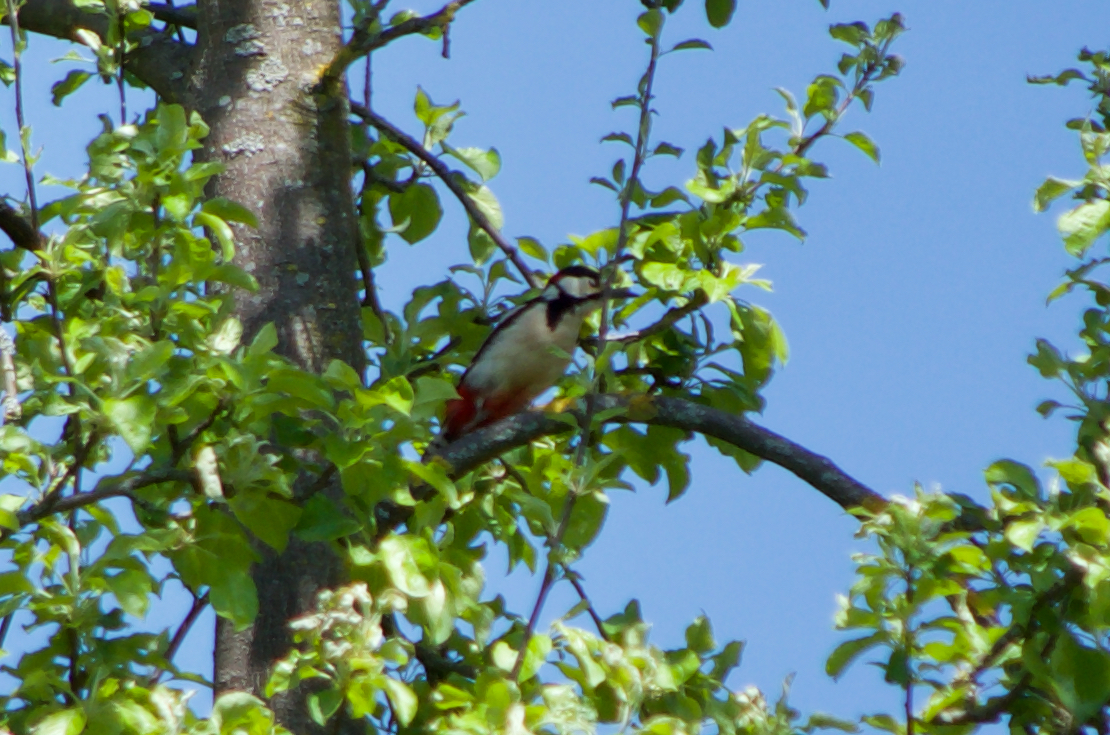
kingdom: Animalia
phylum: Chordata
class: Aves
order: Piciformes
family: Picidae
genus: Dendrocopos
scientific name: Dendrocopos major
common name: Great spotted woodpecker
